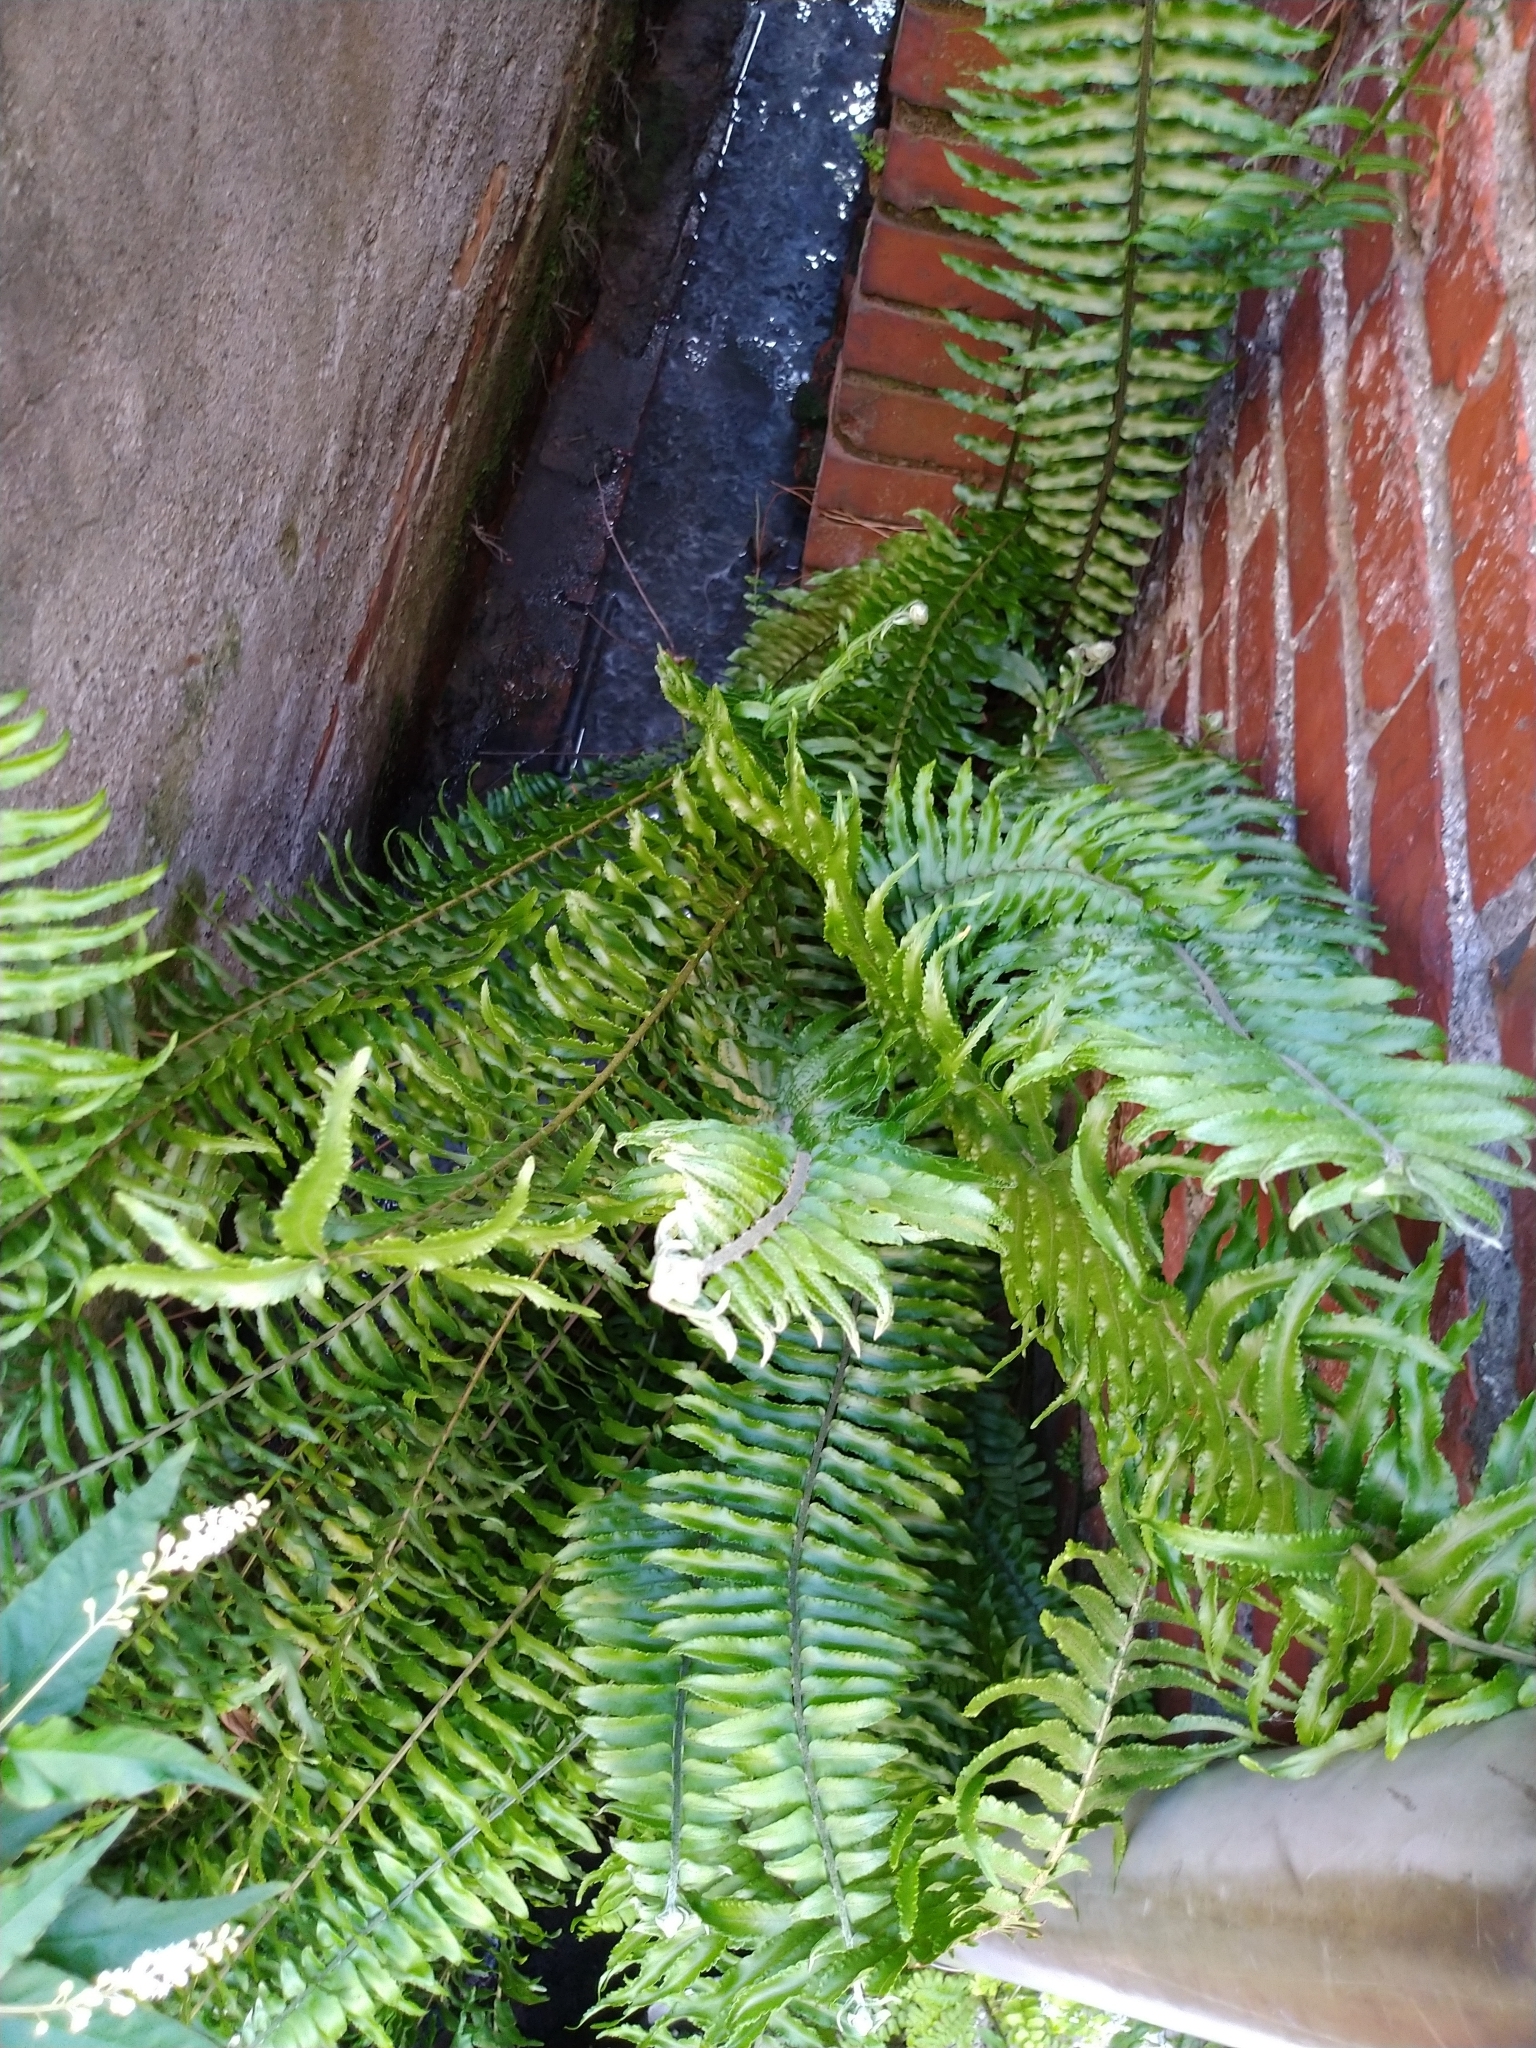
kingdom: Plantae
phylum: Tracheophyta
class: Polypodiopsida
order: Polypodiales
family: Nephrolepidaceae
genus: Nephrolepis
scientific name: Nephrolepis brownii
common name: Asian swordfern
